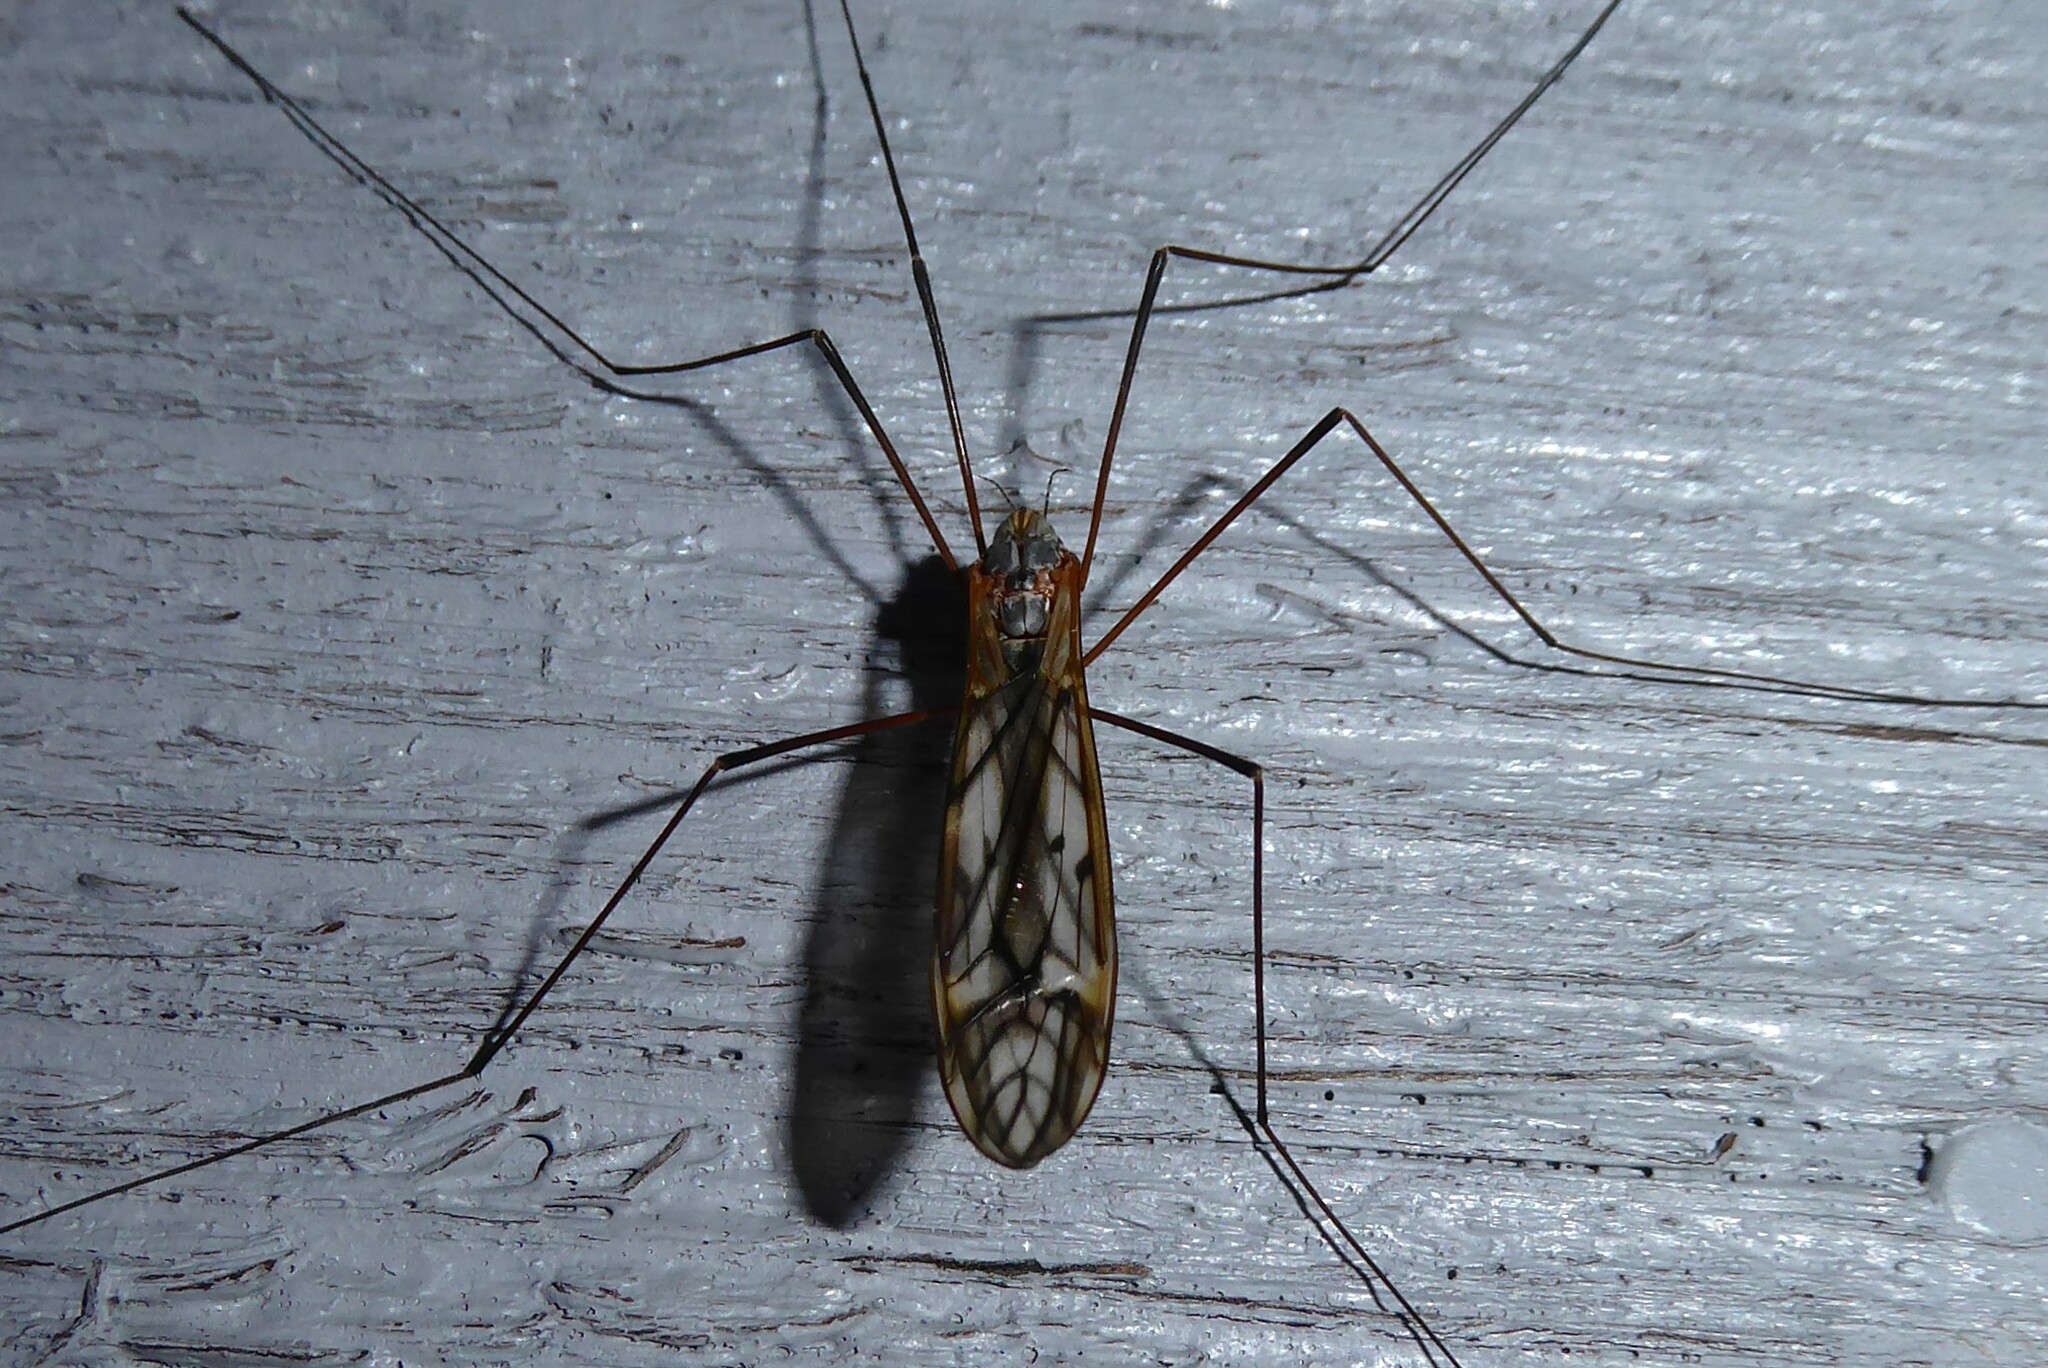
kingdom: Animalia
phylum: Arthropoda
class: Insecta
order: Diptera
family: Tipulidae
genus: Zelandotipula
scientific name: Zelandotipula novarae
